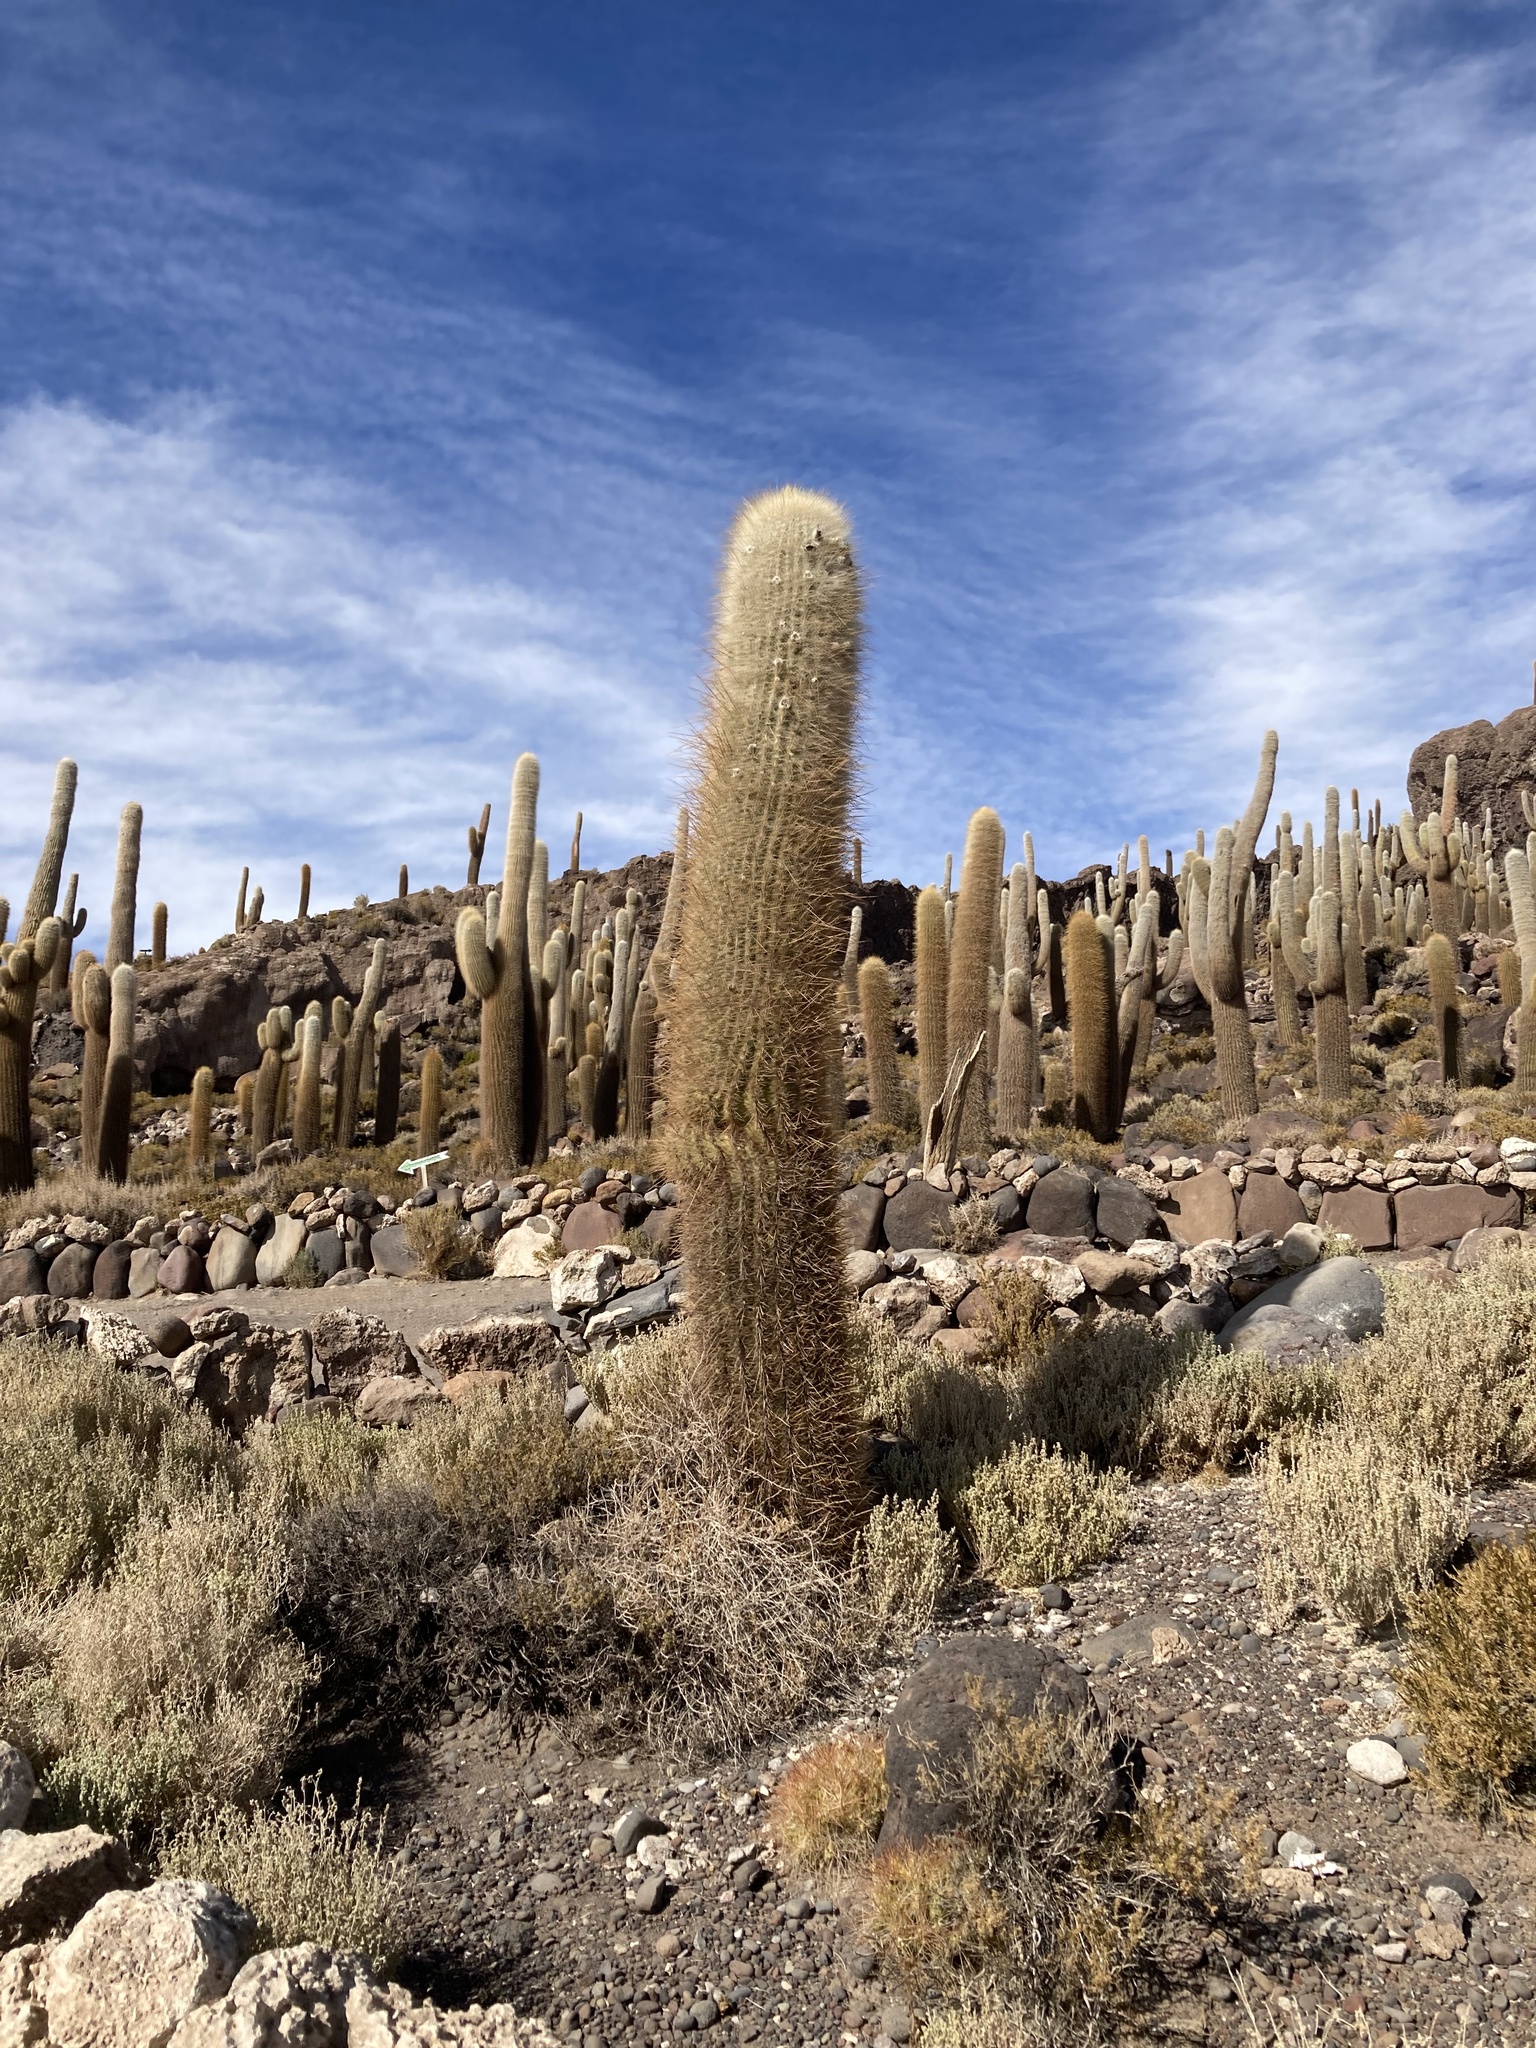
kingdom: Plantae
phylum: Tracheophyta
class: Magnoliopsida
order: Caryophyllales
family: Cactaceae
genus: Leucostele
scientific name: Leucostele atacamensis
